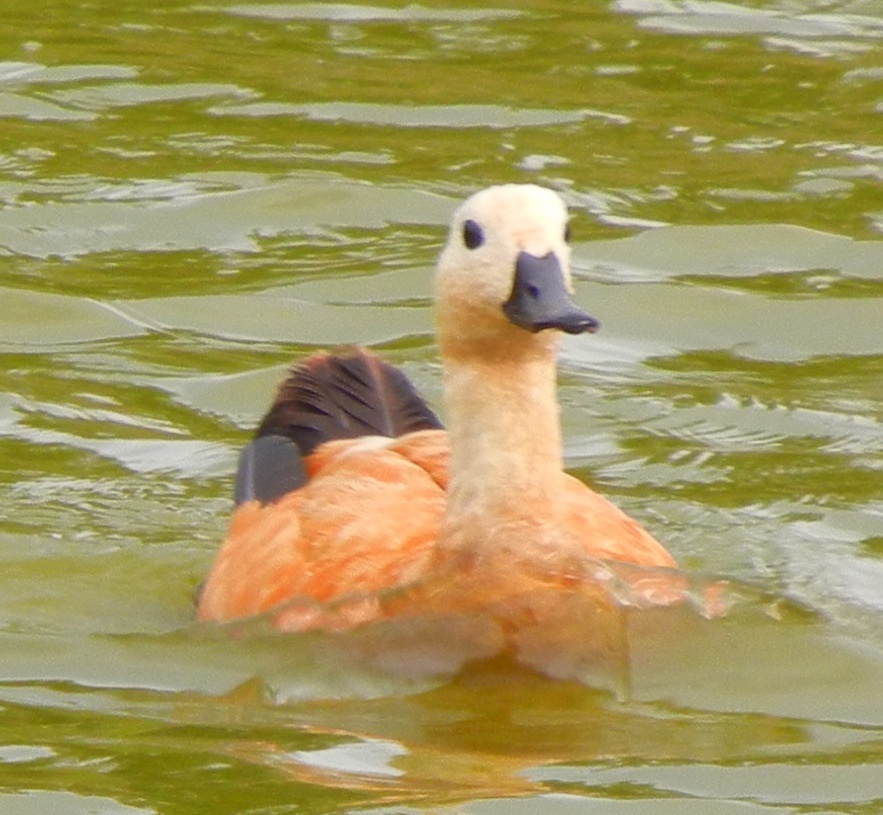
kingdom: Animalia
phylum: Chordata
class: Aves
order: Anseriformes
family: Anatidae
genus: Tadorna
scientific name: Tadorna ferruginea
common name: Ruddy shelduck
